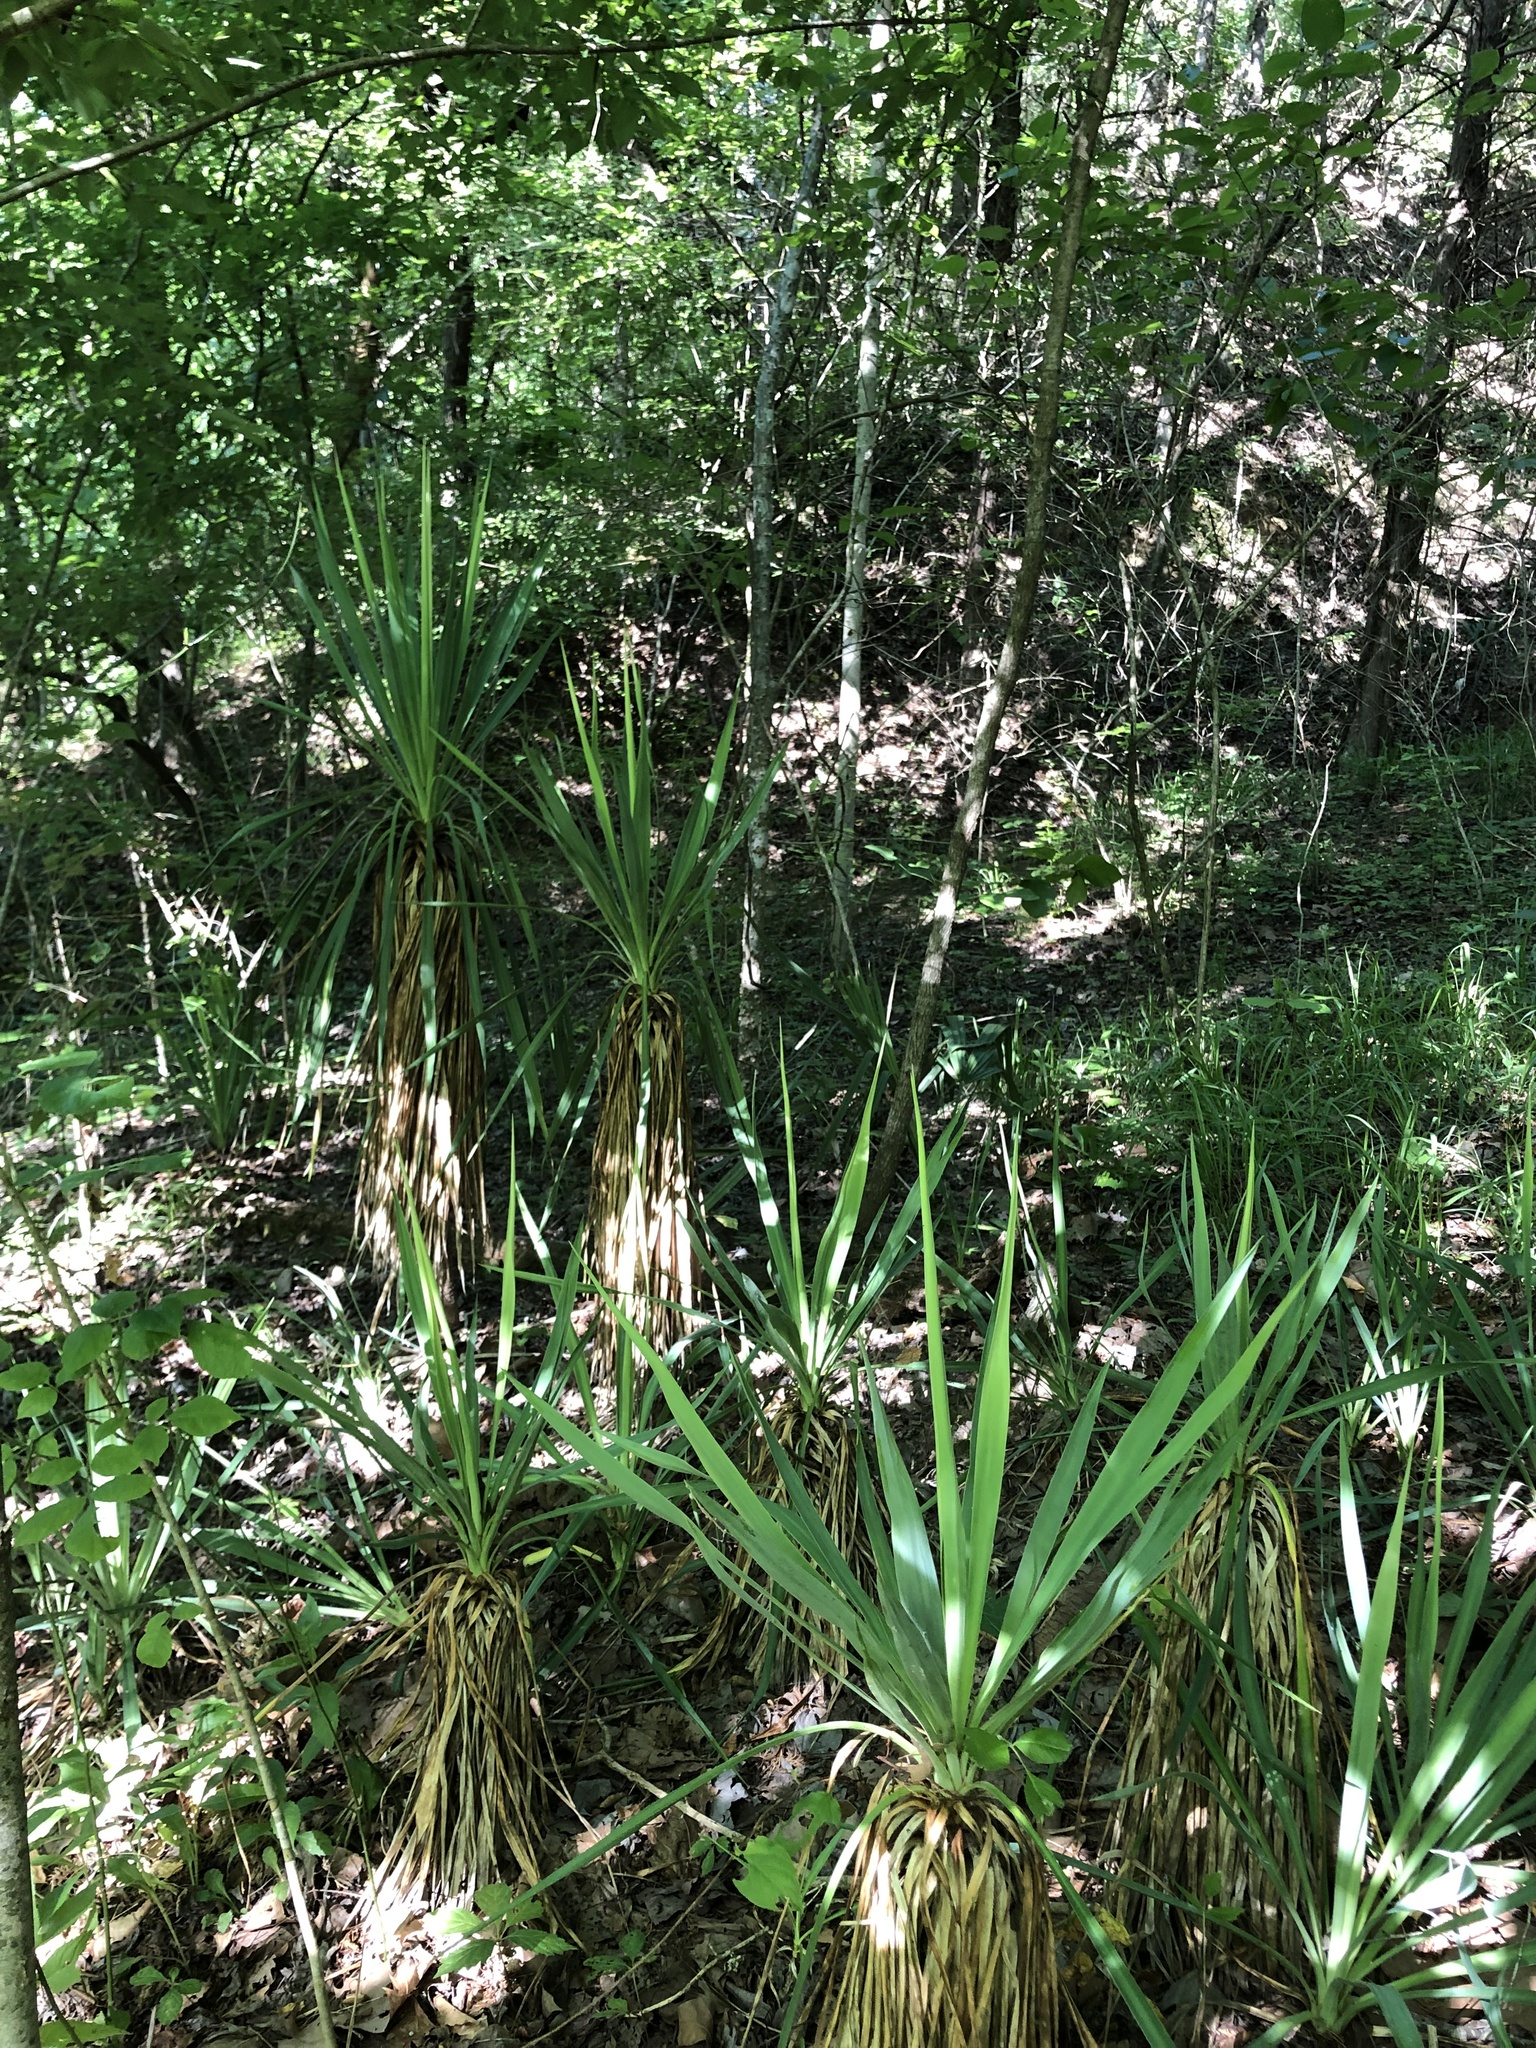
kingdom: Plantae
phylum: Tracheophyta
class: Liliopsida
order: Asparagales
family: Asparagaceae
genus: Yucca
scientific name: Yucca gloriosa
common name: Spanish-dagger
